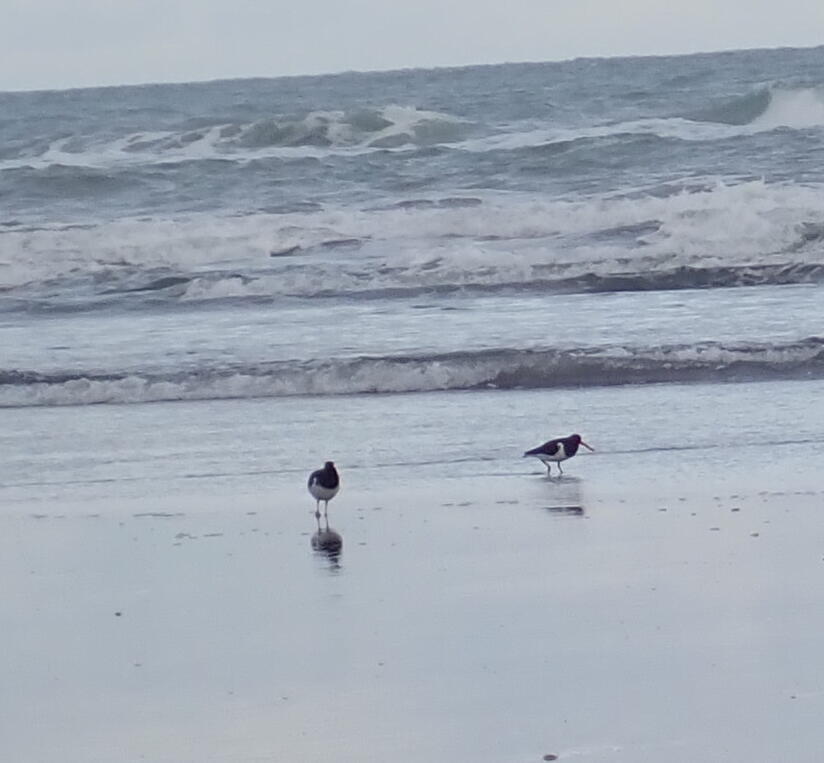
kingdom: Animalia
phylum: Chordata
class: Aves
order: Charadriiformes
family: Haematopodidae
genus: Haematopus
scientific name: Haematopus finschi
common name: South island oystercatcher
